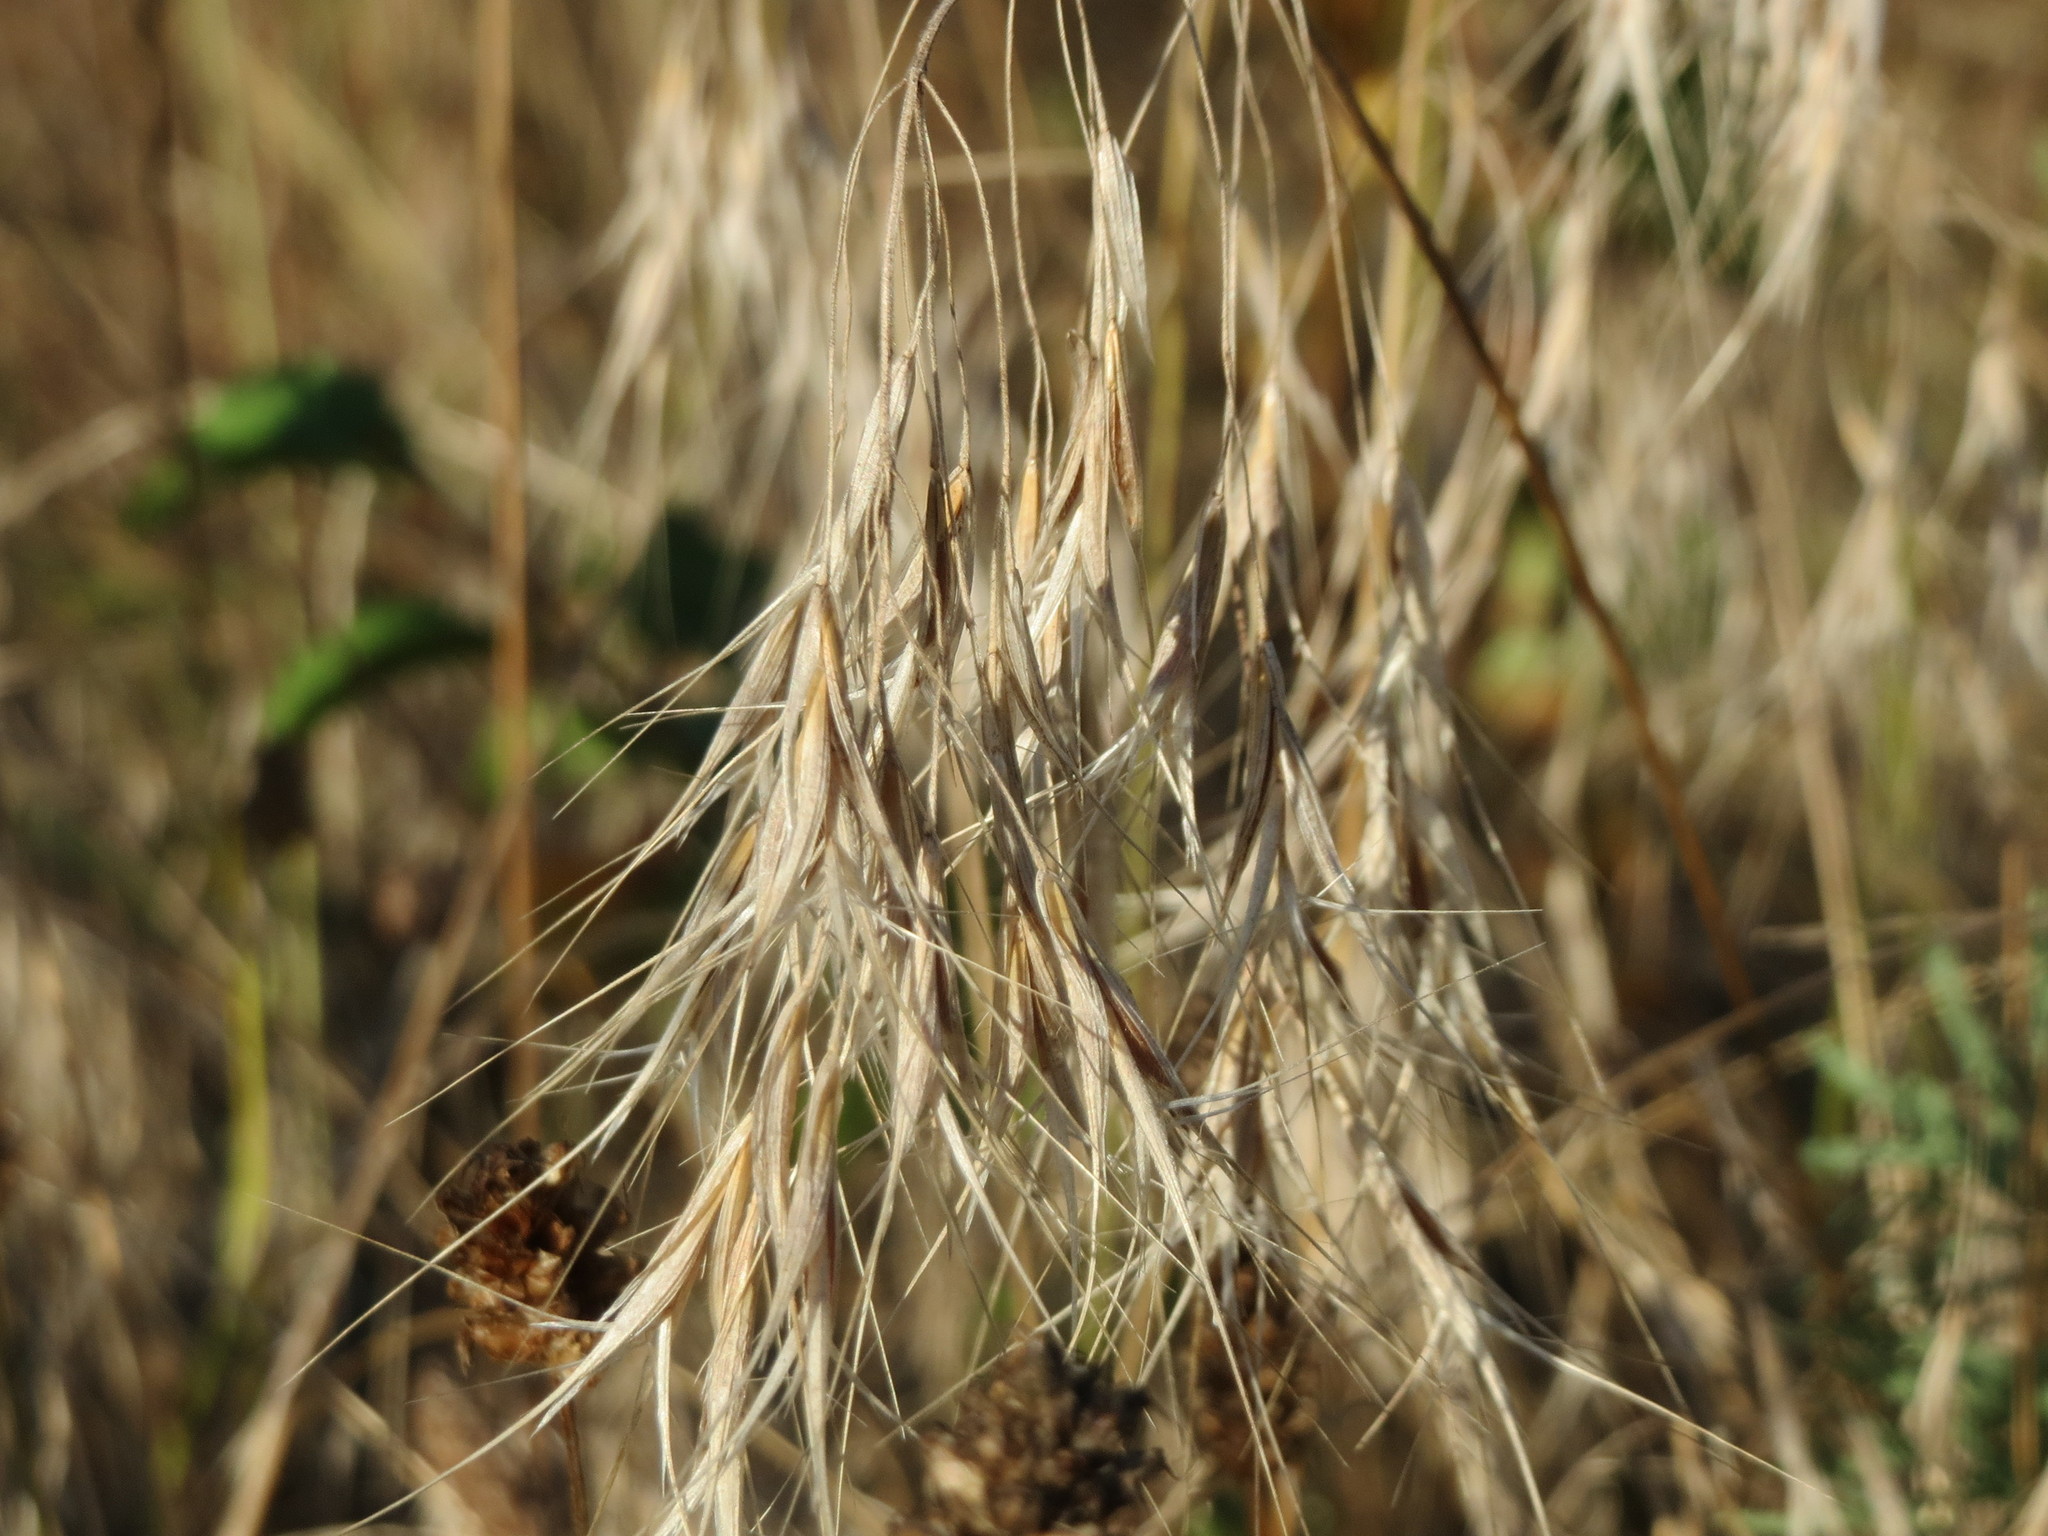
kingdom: Plantae
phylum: Tracheophyta
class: Liliopsida
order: Poales
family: Poaceae
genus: Bromus
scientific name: Bromus tectorum
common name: Cheatgrass
